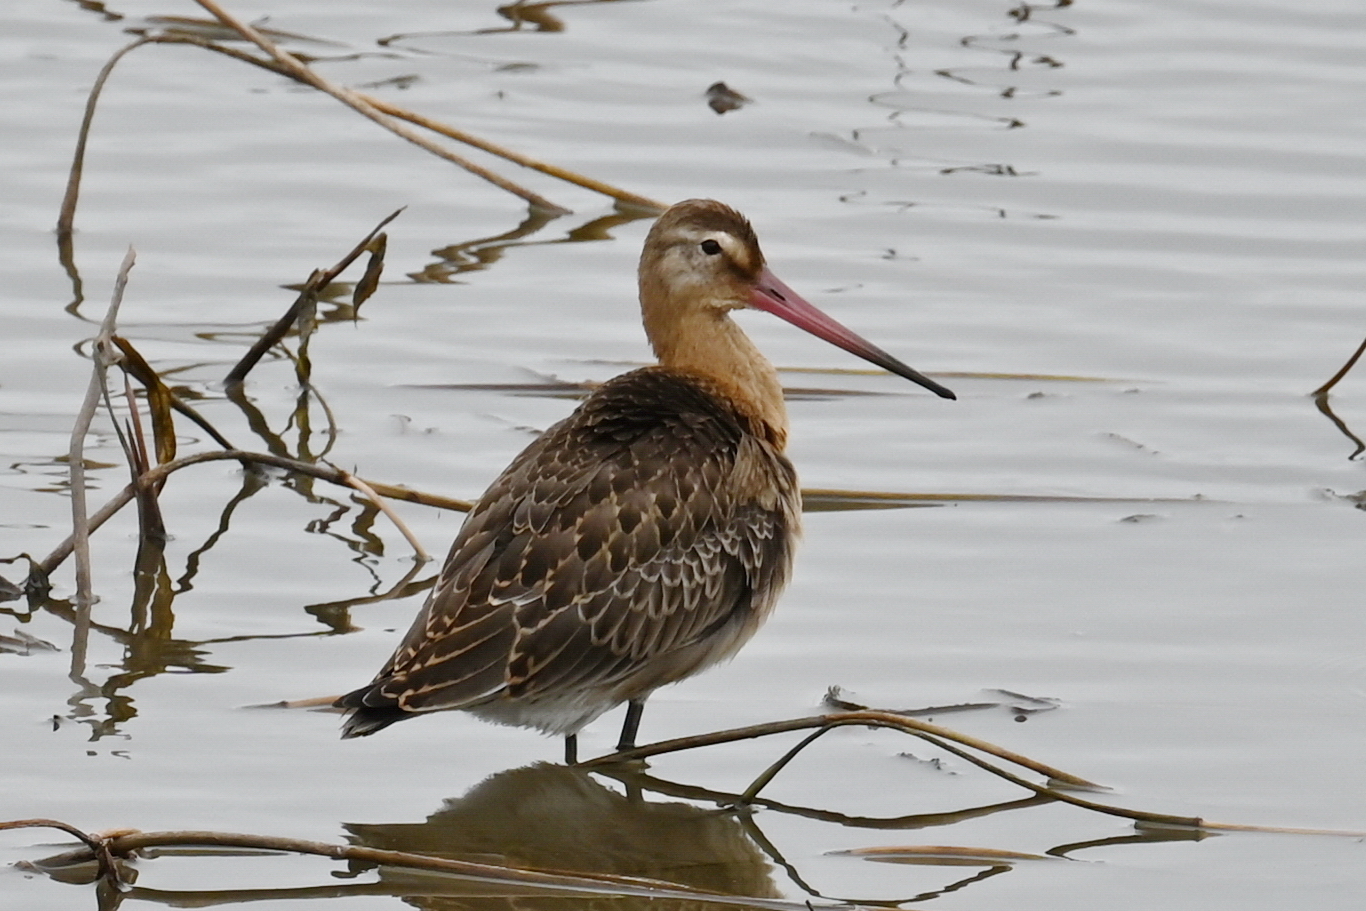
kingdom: Animalia
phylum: Chordata
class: Aves
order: Charadriiformes
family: Scolopacidae
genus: Limosa
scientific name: Limosa limosa
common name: Black-tailed godwit
